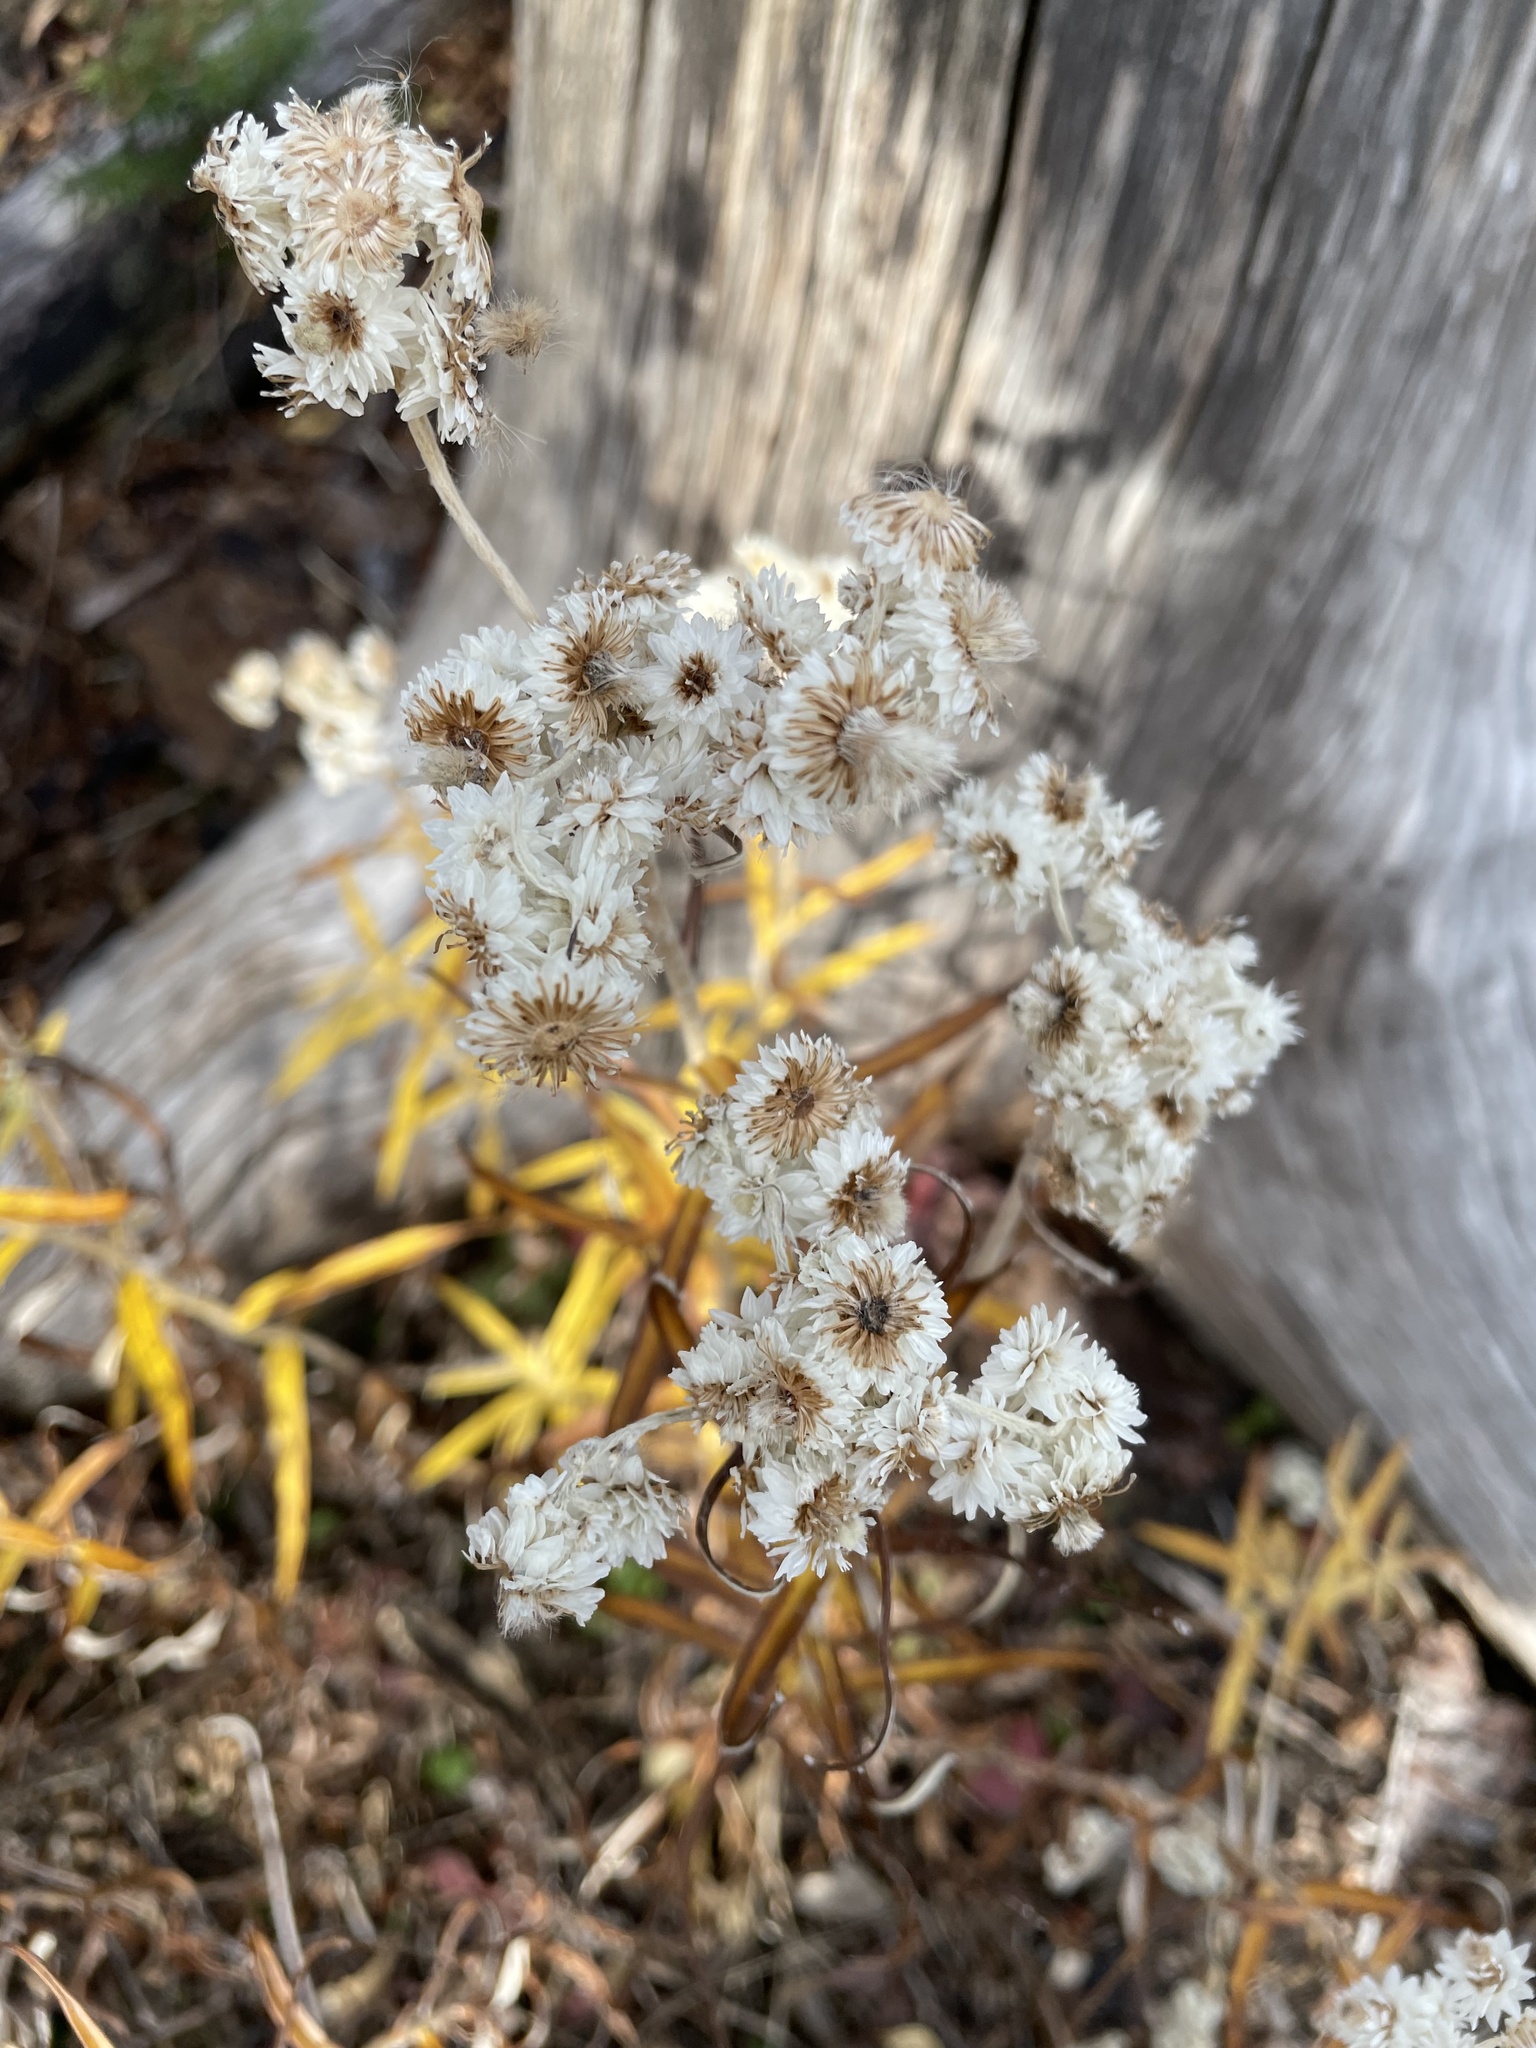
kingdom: Plantae
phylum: Tracheophyta
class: Magnoliopsida
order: Asterales
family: Asteraceae
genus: Anaphalis
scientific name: Anaphalis margaritacea
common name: Pearly everlasting
